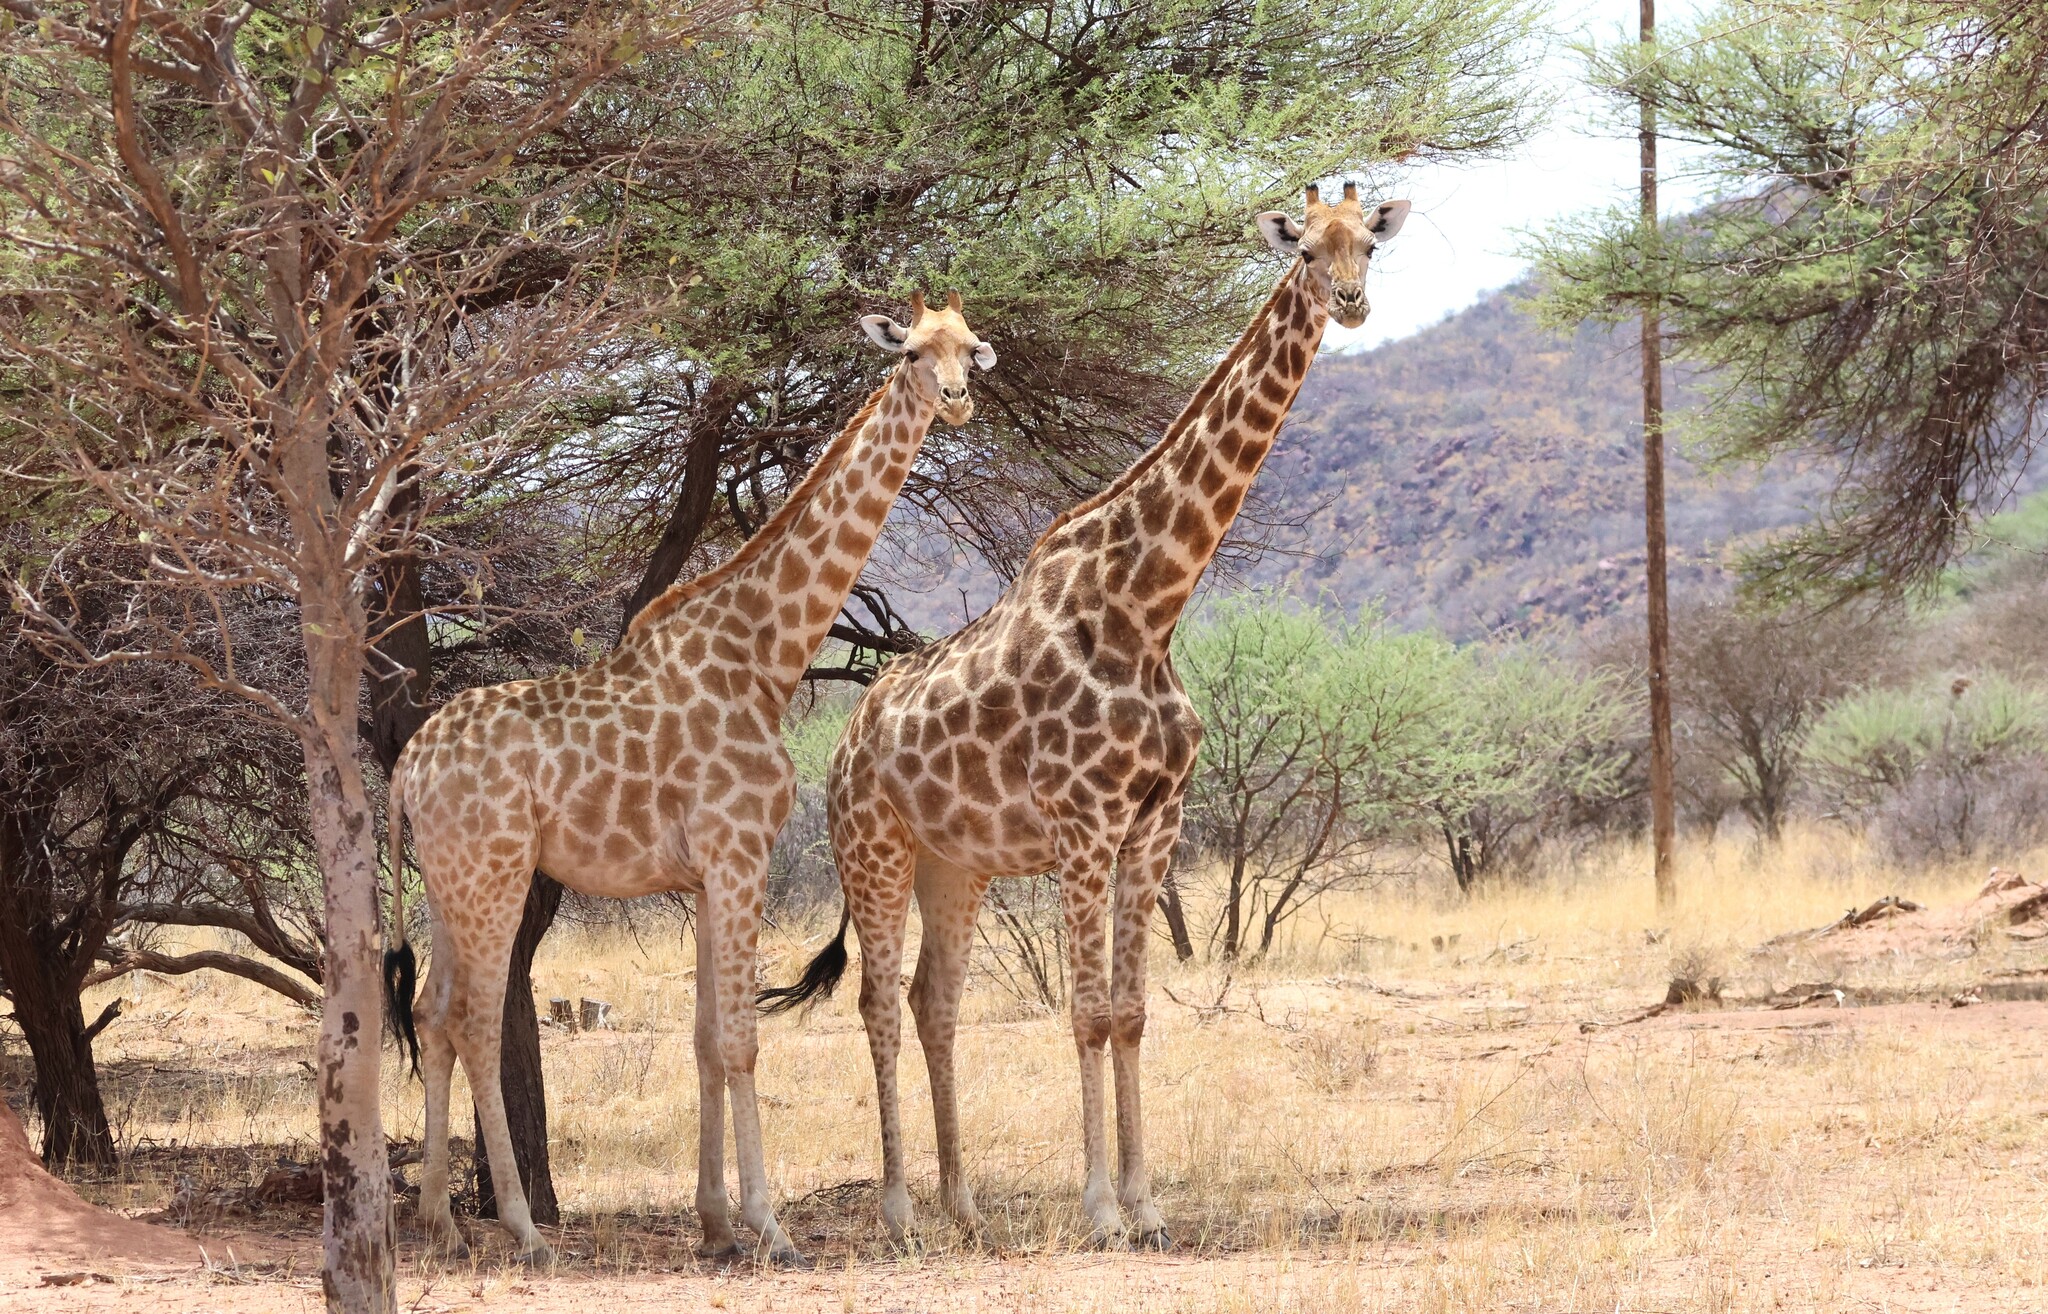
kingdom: Animalia
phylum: Chordata
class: Mammalia
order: Artiodactyla
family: Giraffidae
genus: Giraffa
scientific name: Giraffa giraffa
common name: Southern giraffe
